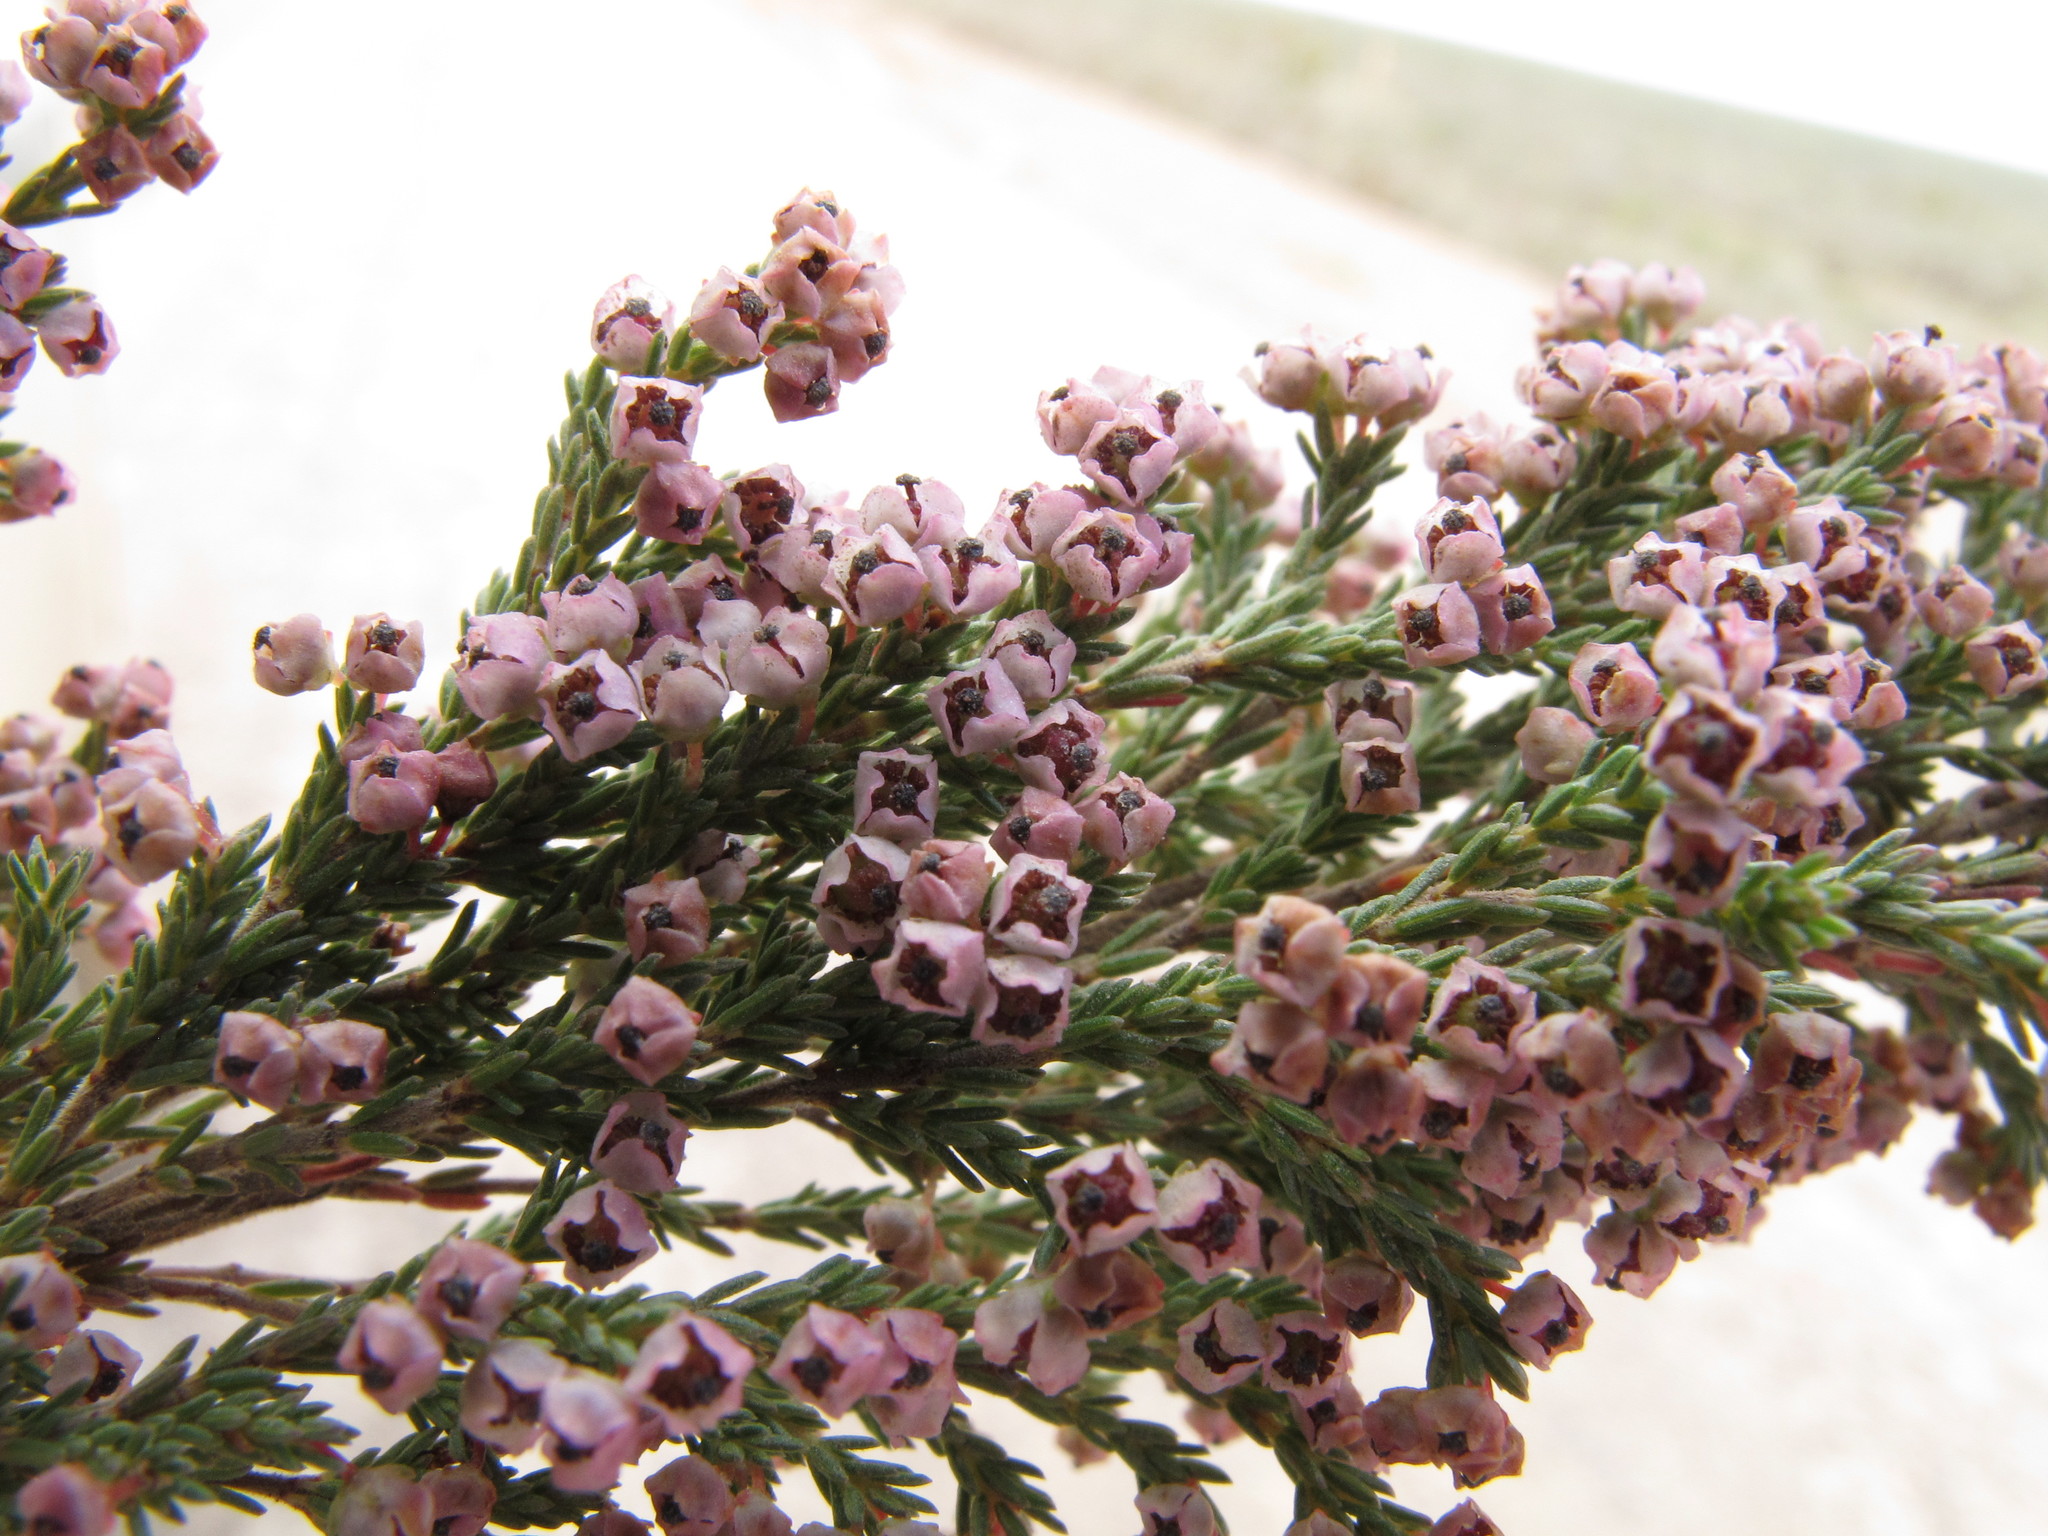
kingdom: Plantae
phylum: Tracheophyta
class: Magnoliopsida
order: Ericales
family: Ericaceae
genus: Erica
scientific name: Erica flexistyla
